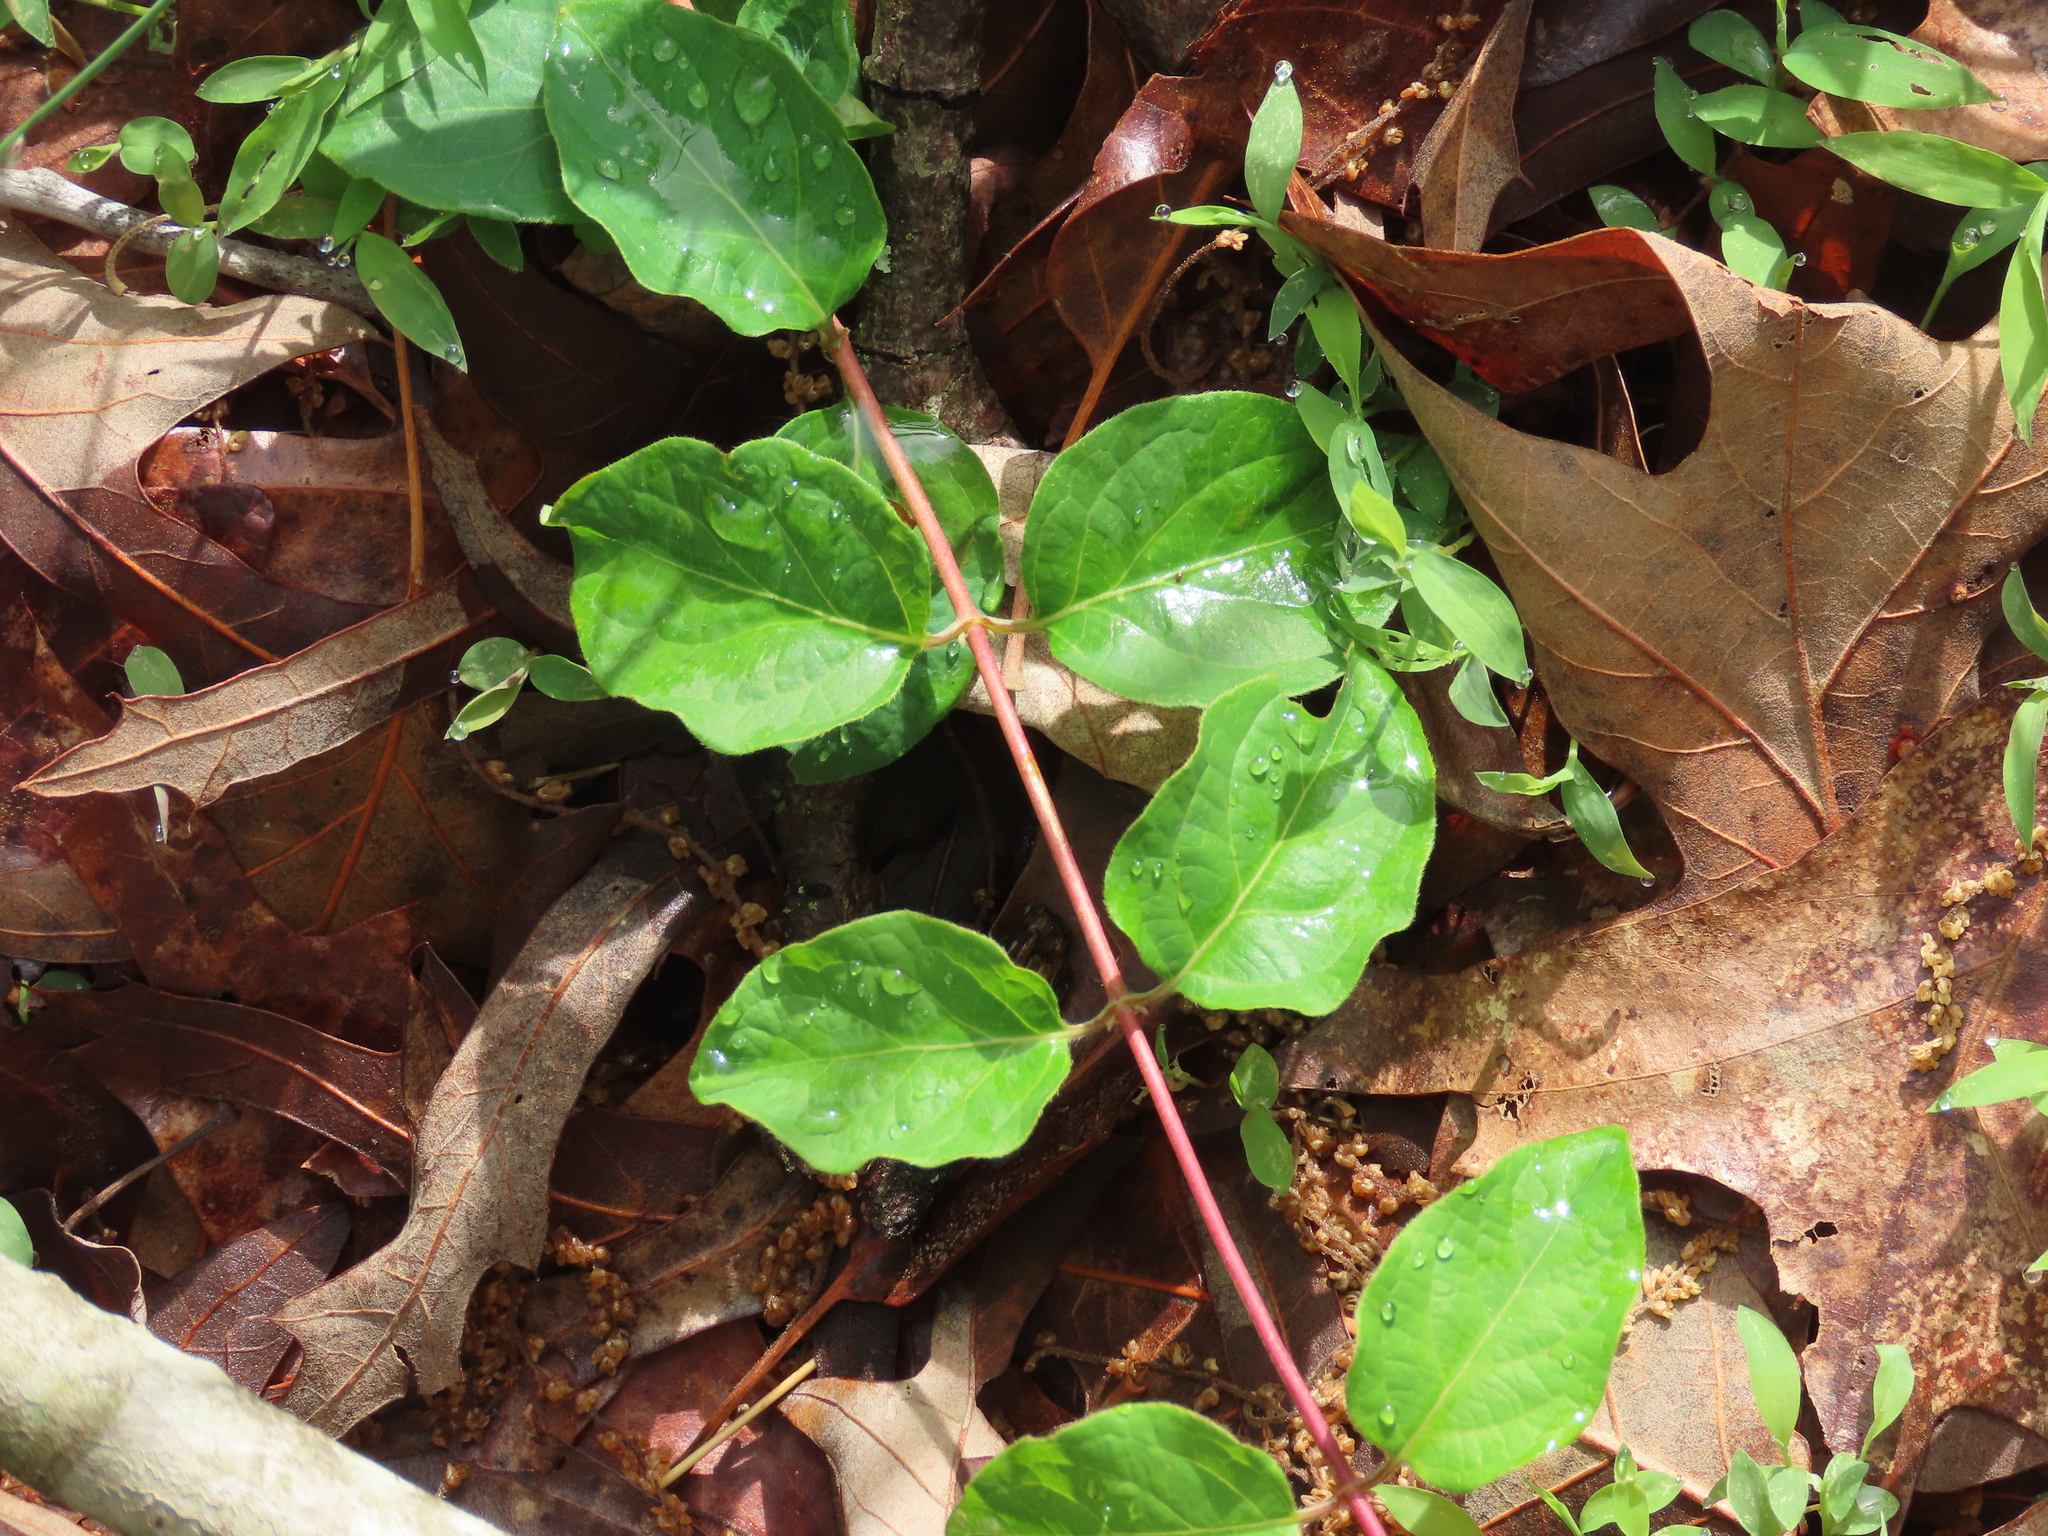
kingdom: Plantae
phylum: Tracheophyta
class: Magnoliopsida
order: Dipsacales
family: Caprifoliaceae
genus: Lonicera
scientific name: Lonicera japonica
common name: Japanese honeysuckle
